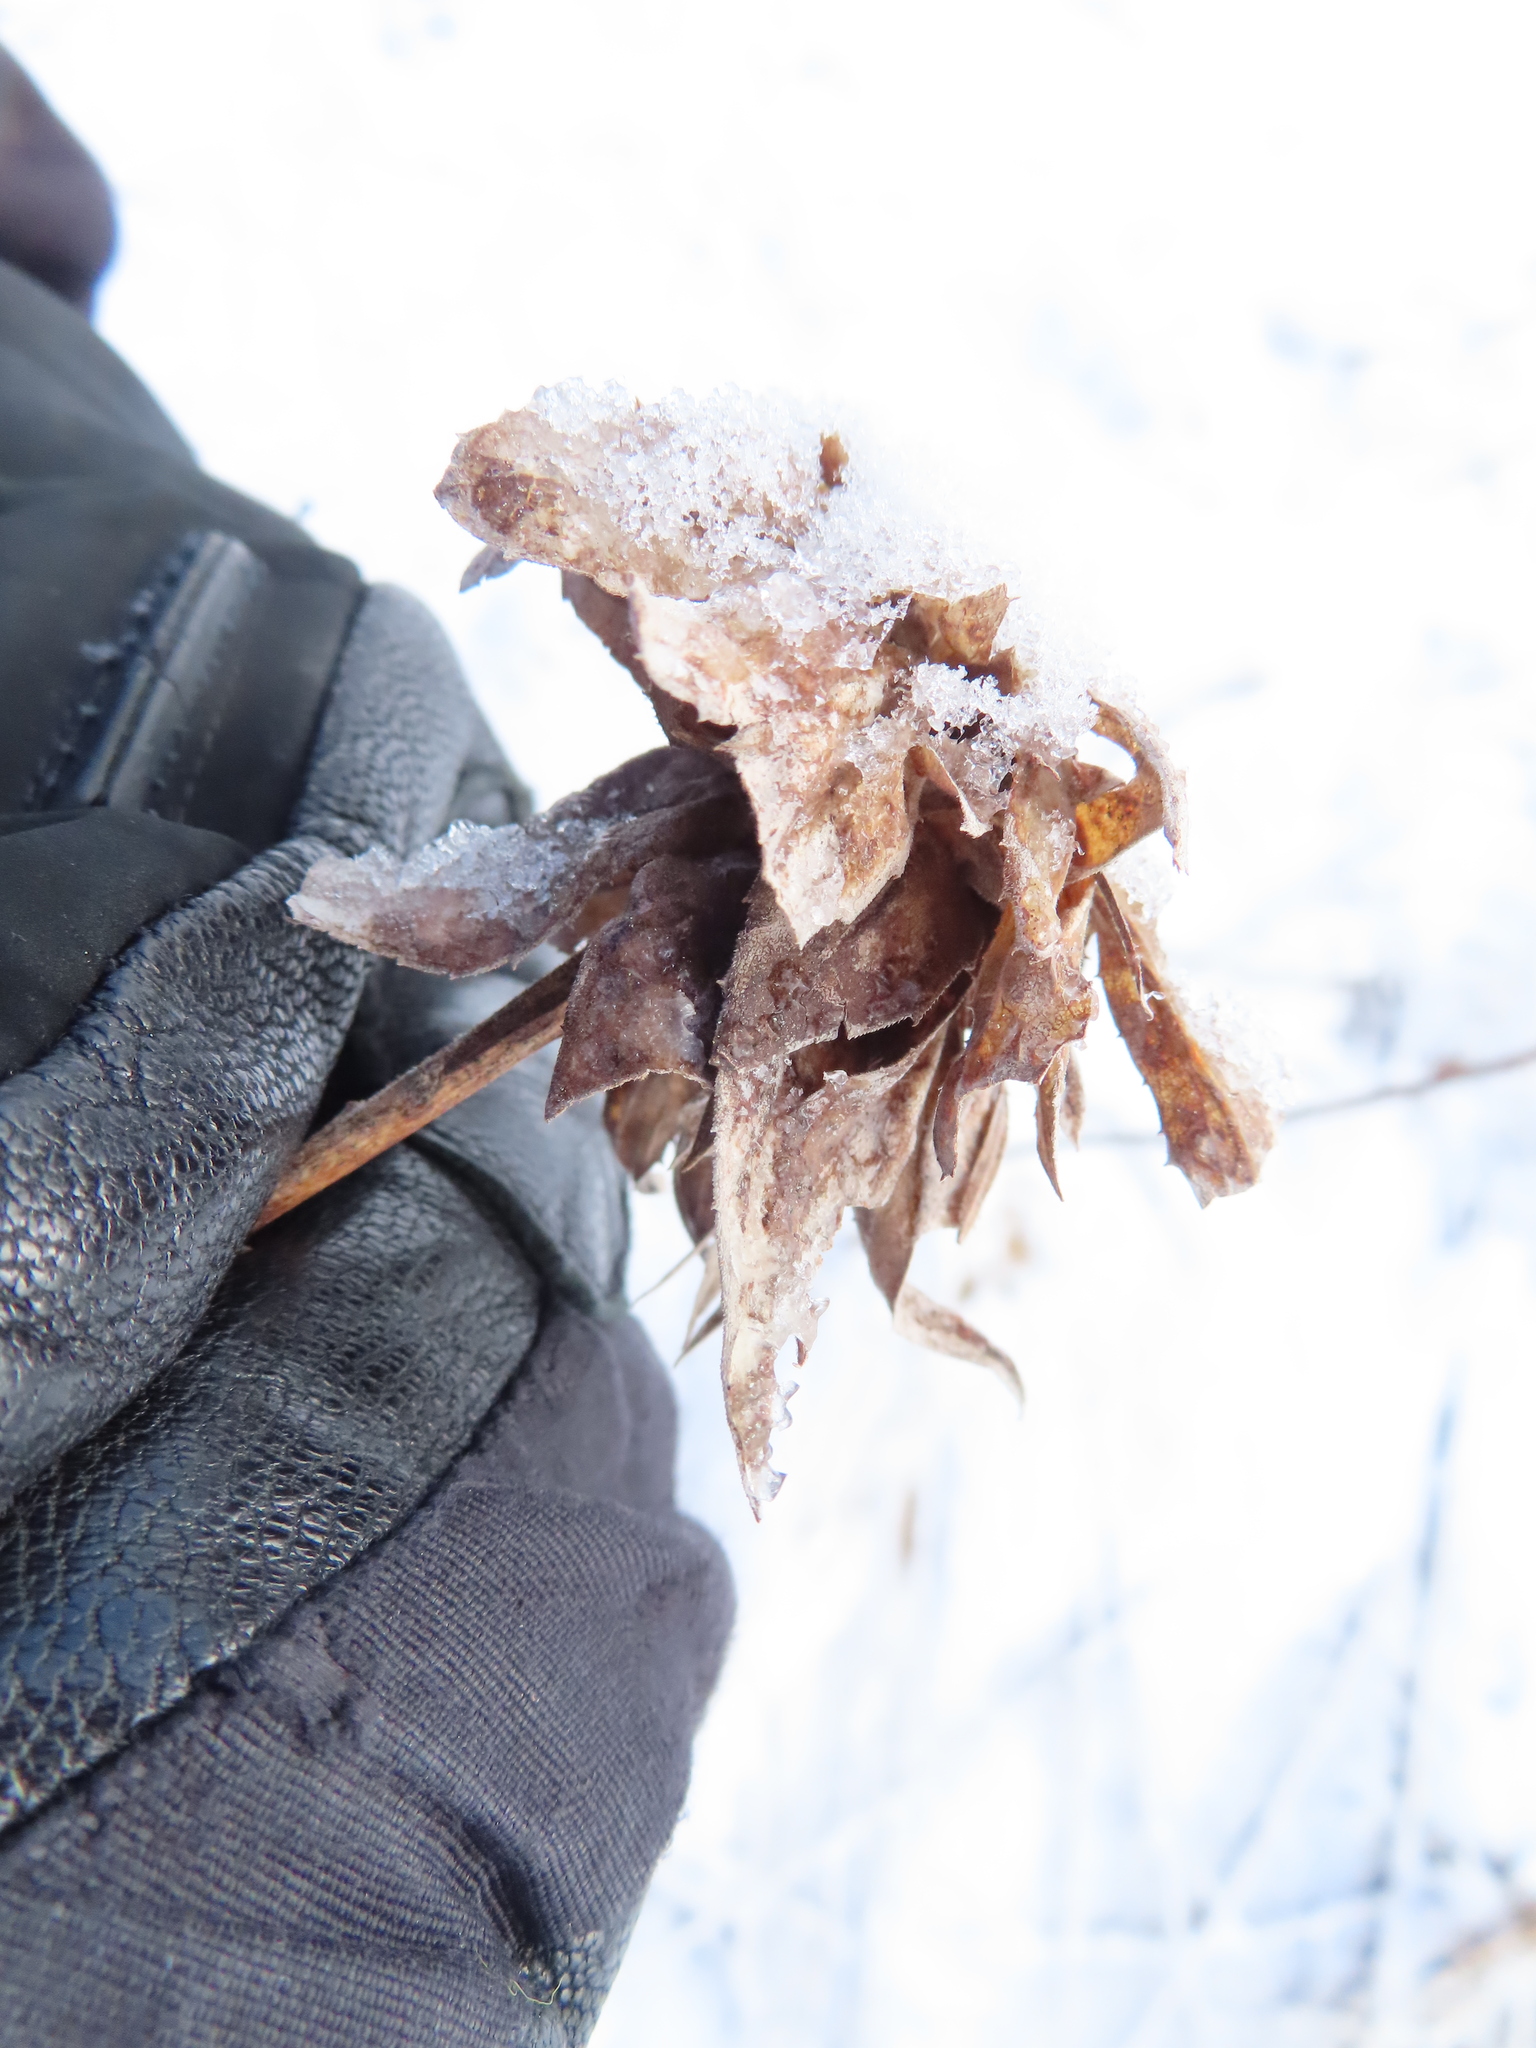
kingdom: Animalia
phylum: Arthropoda
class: Insecta
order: Diptera
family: Cecidomyiidae
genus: Rhopalomyia
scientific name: Rhopalomyia solidaginis
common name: Goldenrod bunch gall midge
